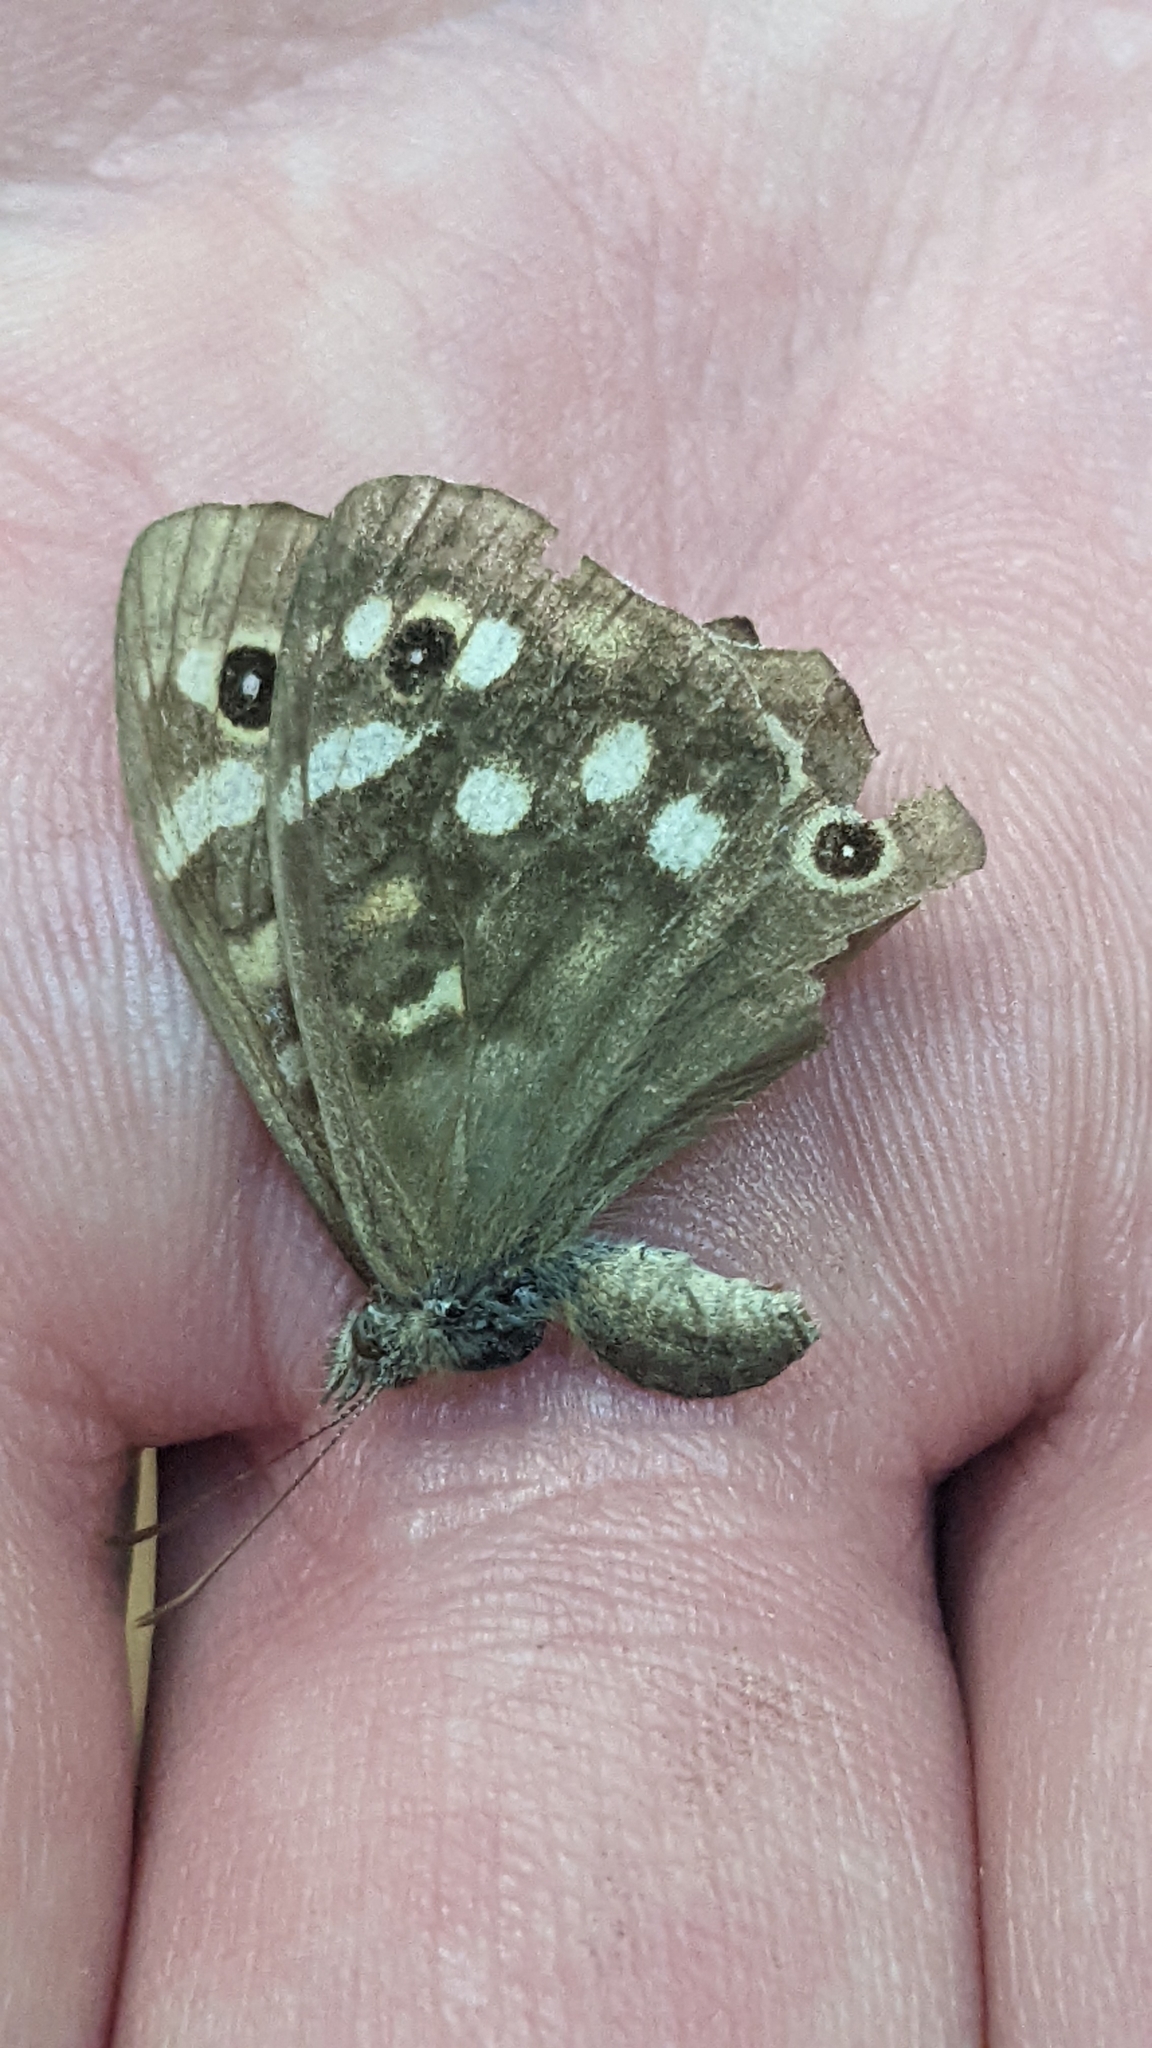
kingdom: Animalia
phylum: Arthropoda
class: Insecta
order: Lepidoptera
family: Nymphalidae
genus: Pararge
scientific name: Pararge aegeria
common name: Speckled wood
